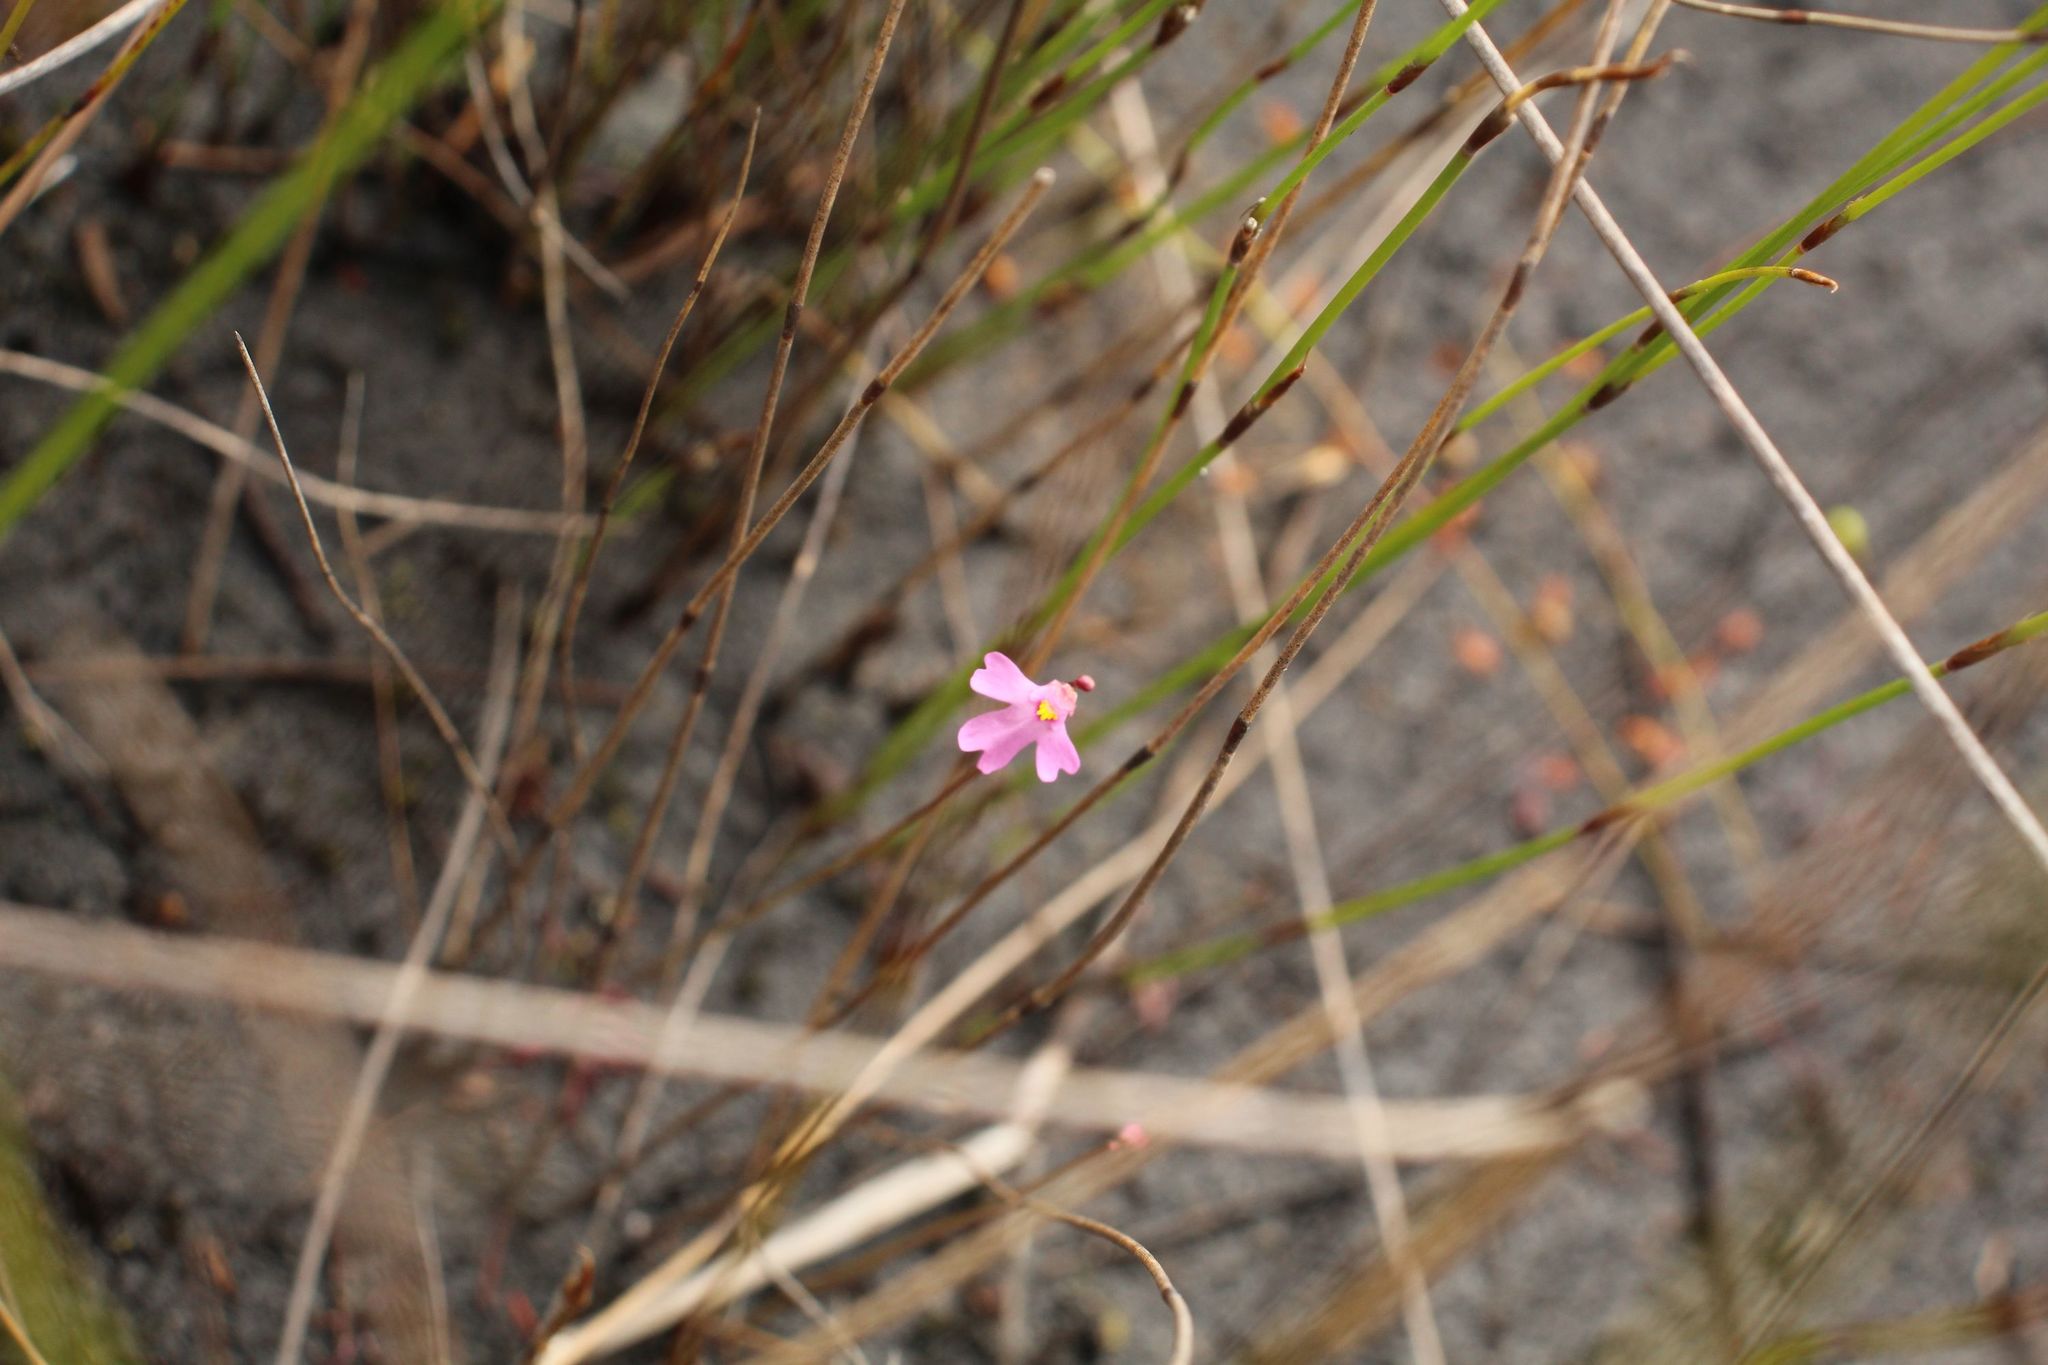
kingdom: Plantae
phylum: Tracheophyta
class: Magnoliopsida
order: Lamiales
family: Lentibulariaceae
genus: Utricularia
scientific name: Utricularia multifida
